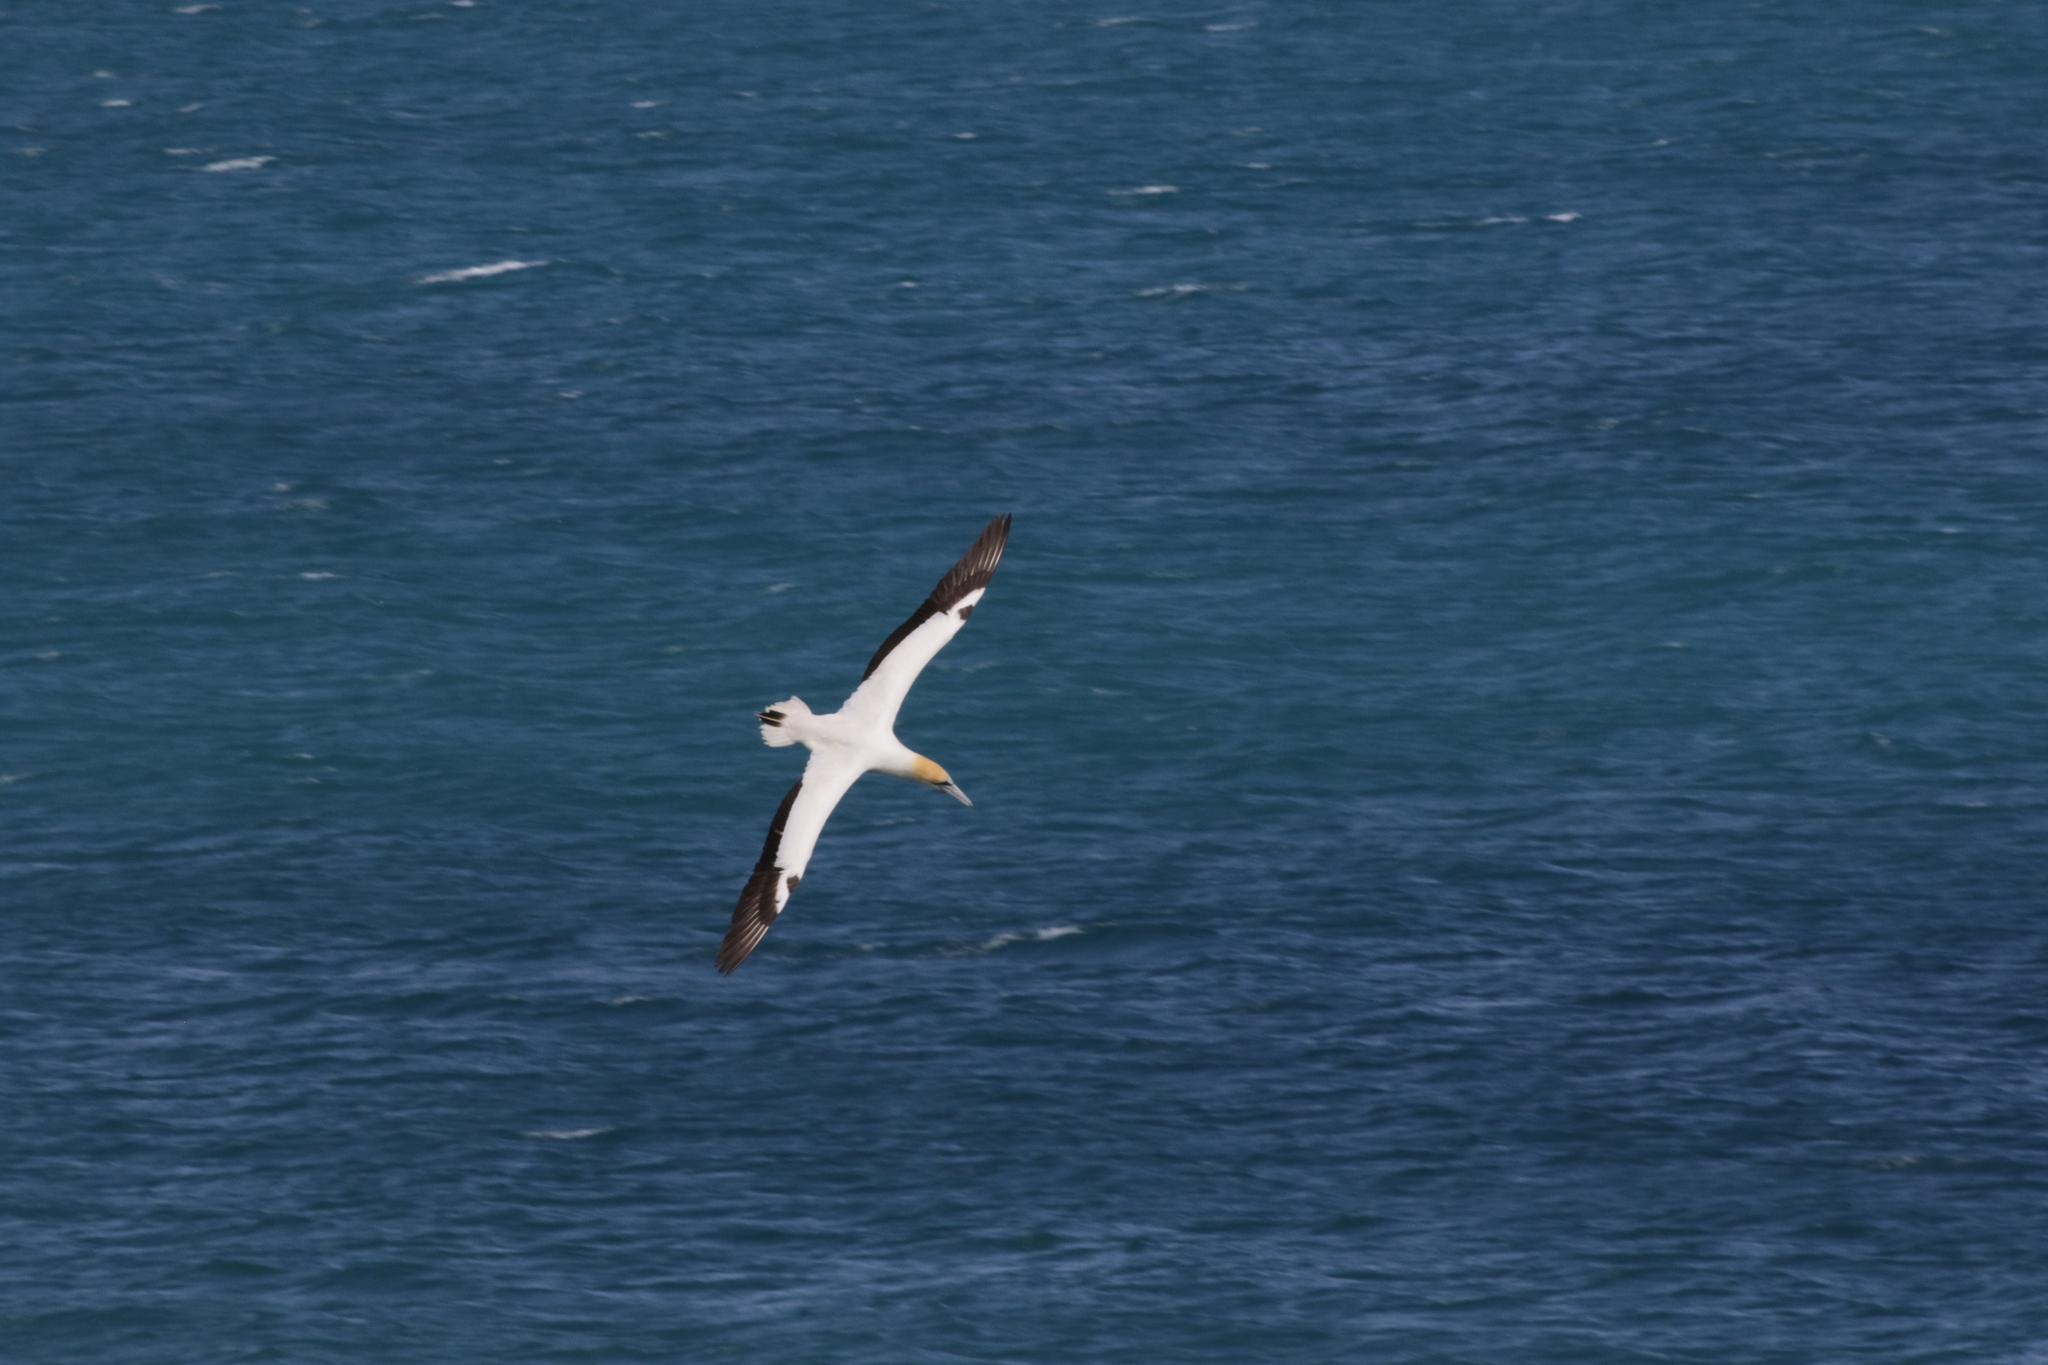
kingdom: Animalia
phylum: Chordata
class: Aves
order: Suliformes
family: Sulidae
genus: Morus
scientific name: Morus serrator
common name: Australasian gannet
